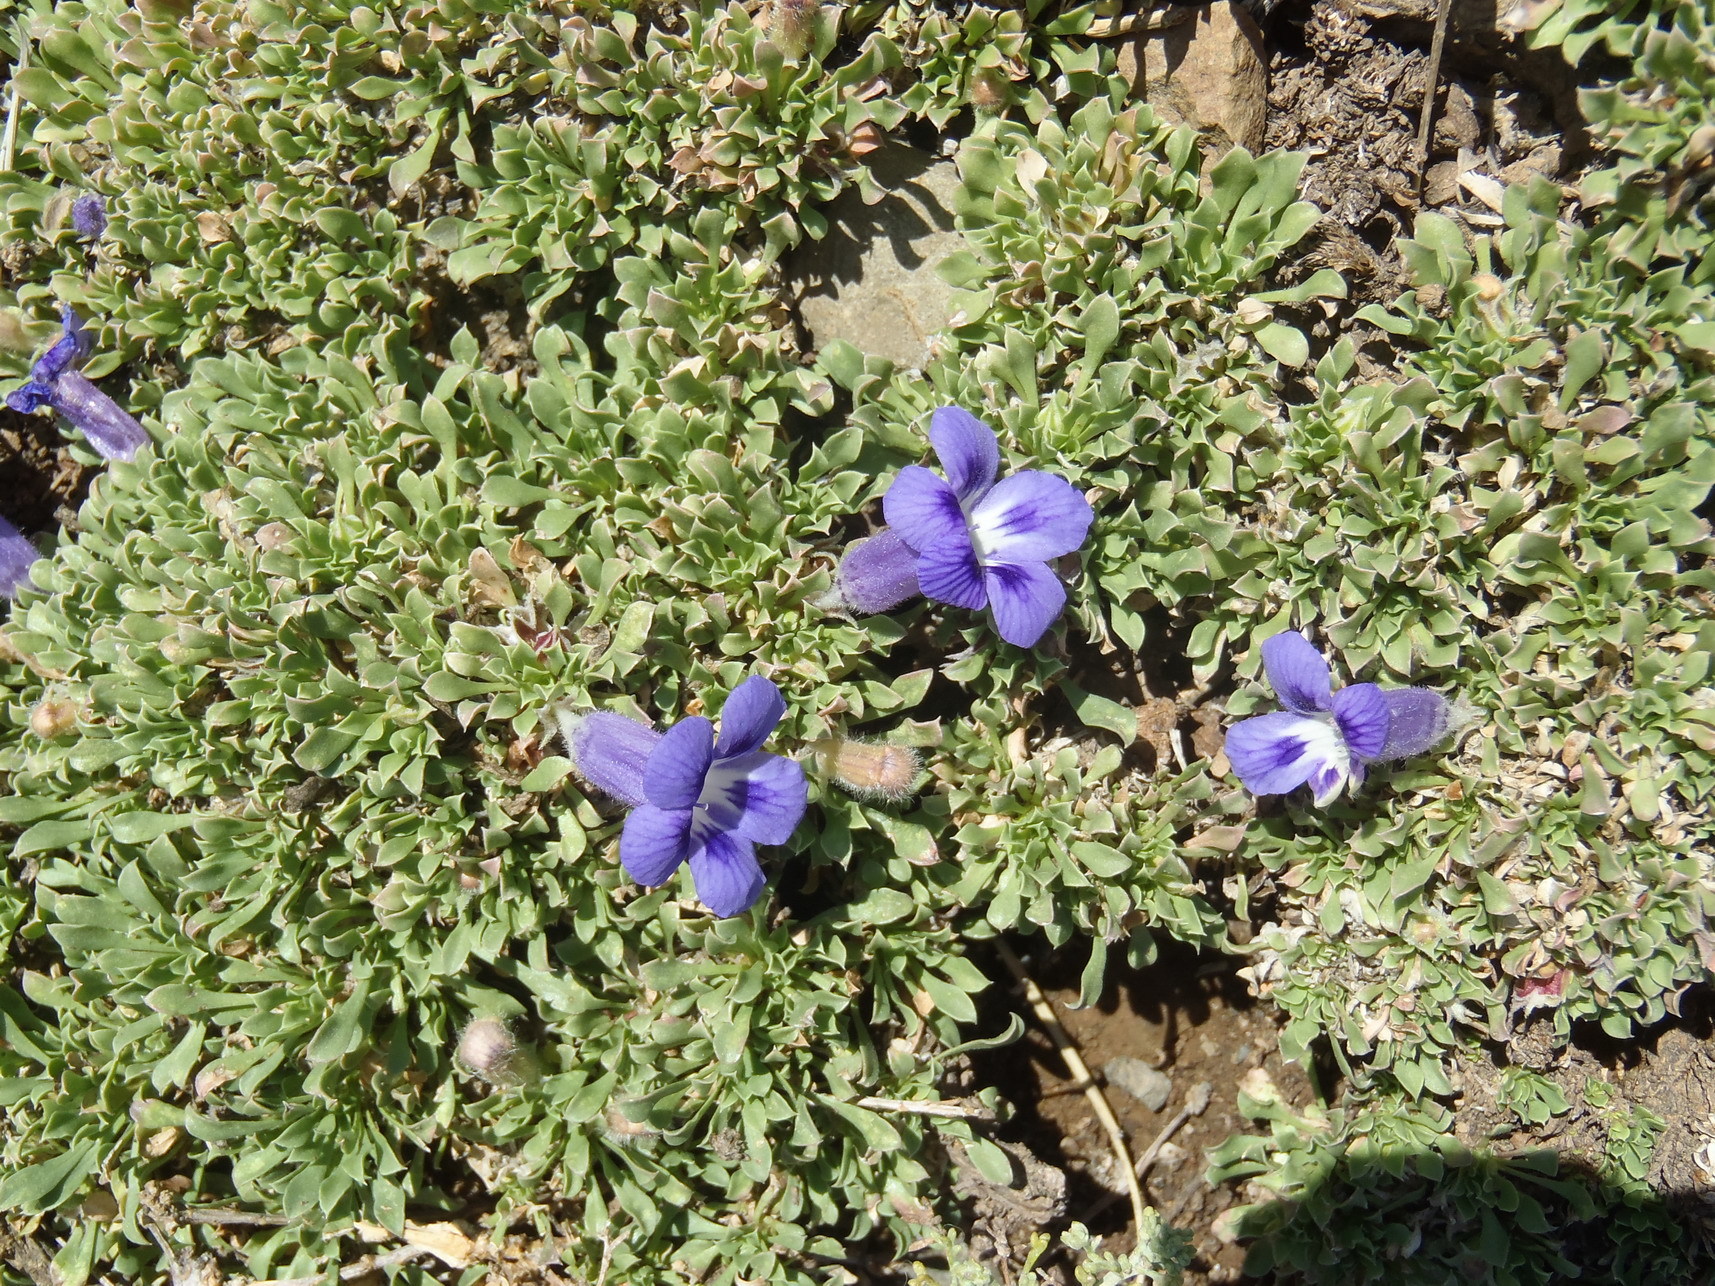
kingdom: Plantae
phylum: Tracheophyta
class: Magnoliopsida
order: Lamiales
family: Scrophulariaceae
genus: Aptosimum
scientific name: Aptosimum procumbens
